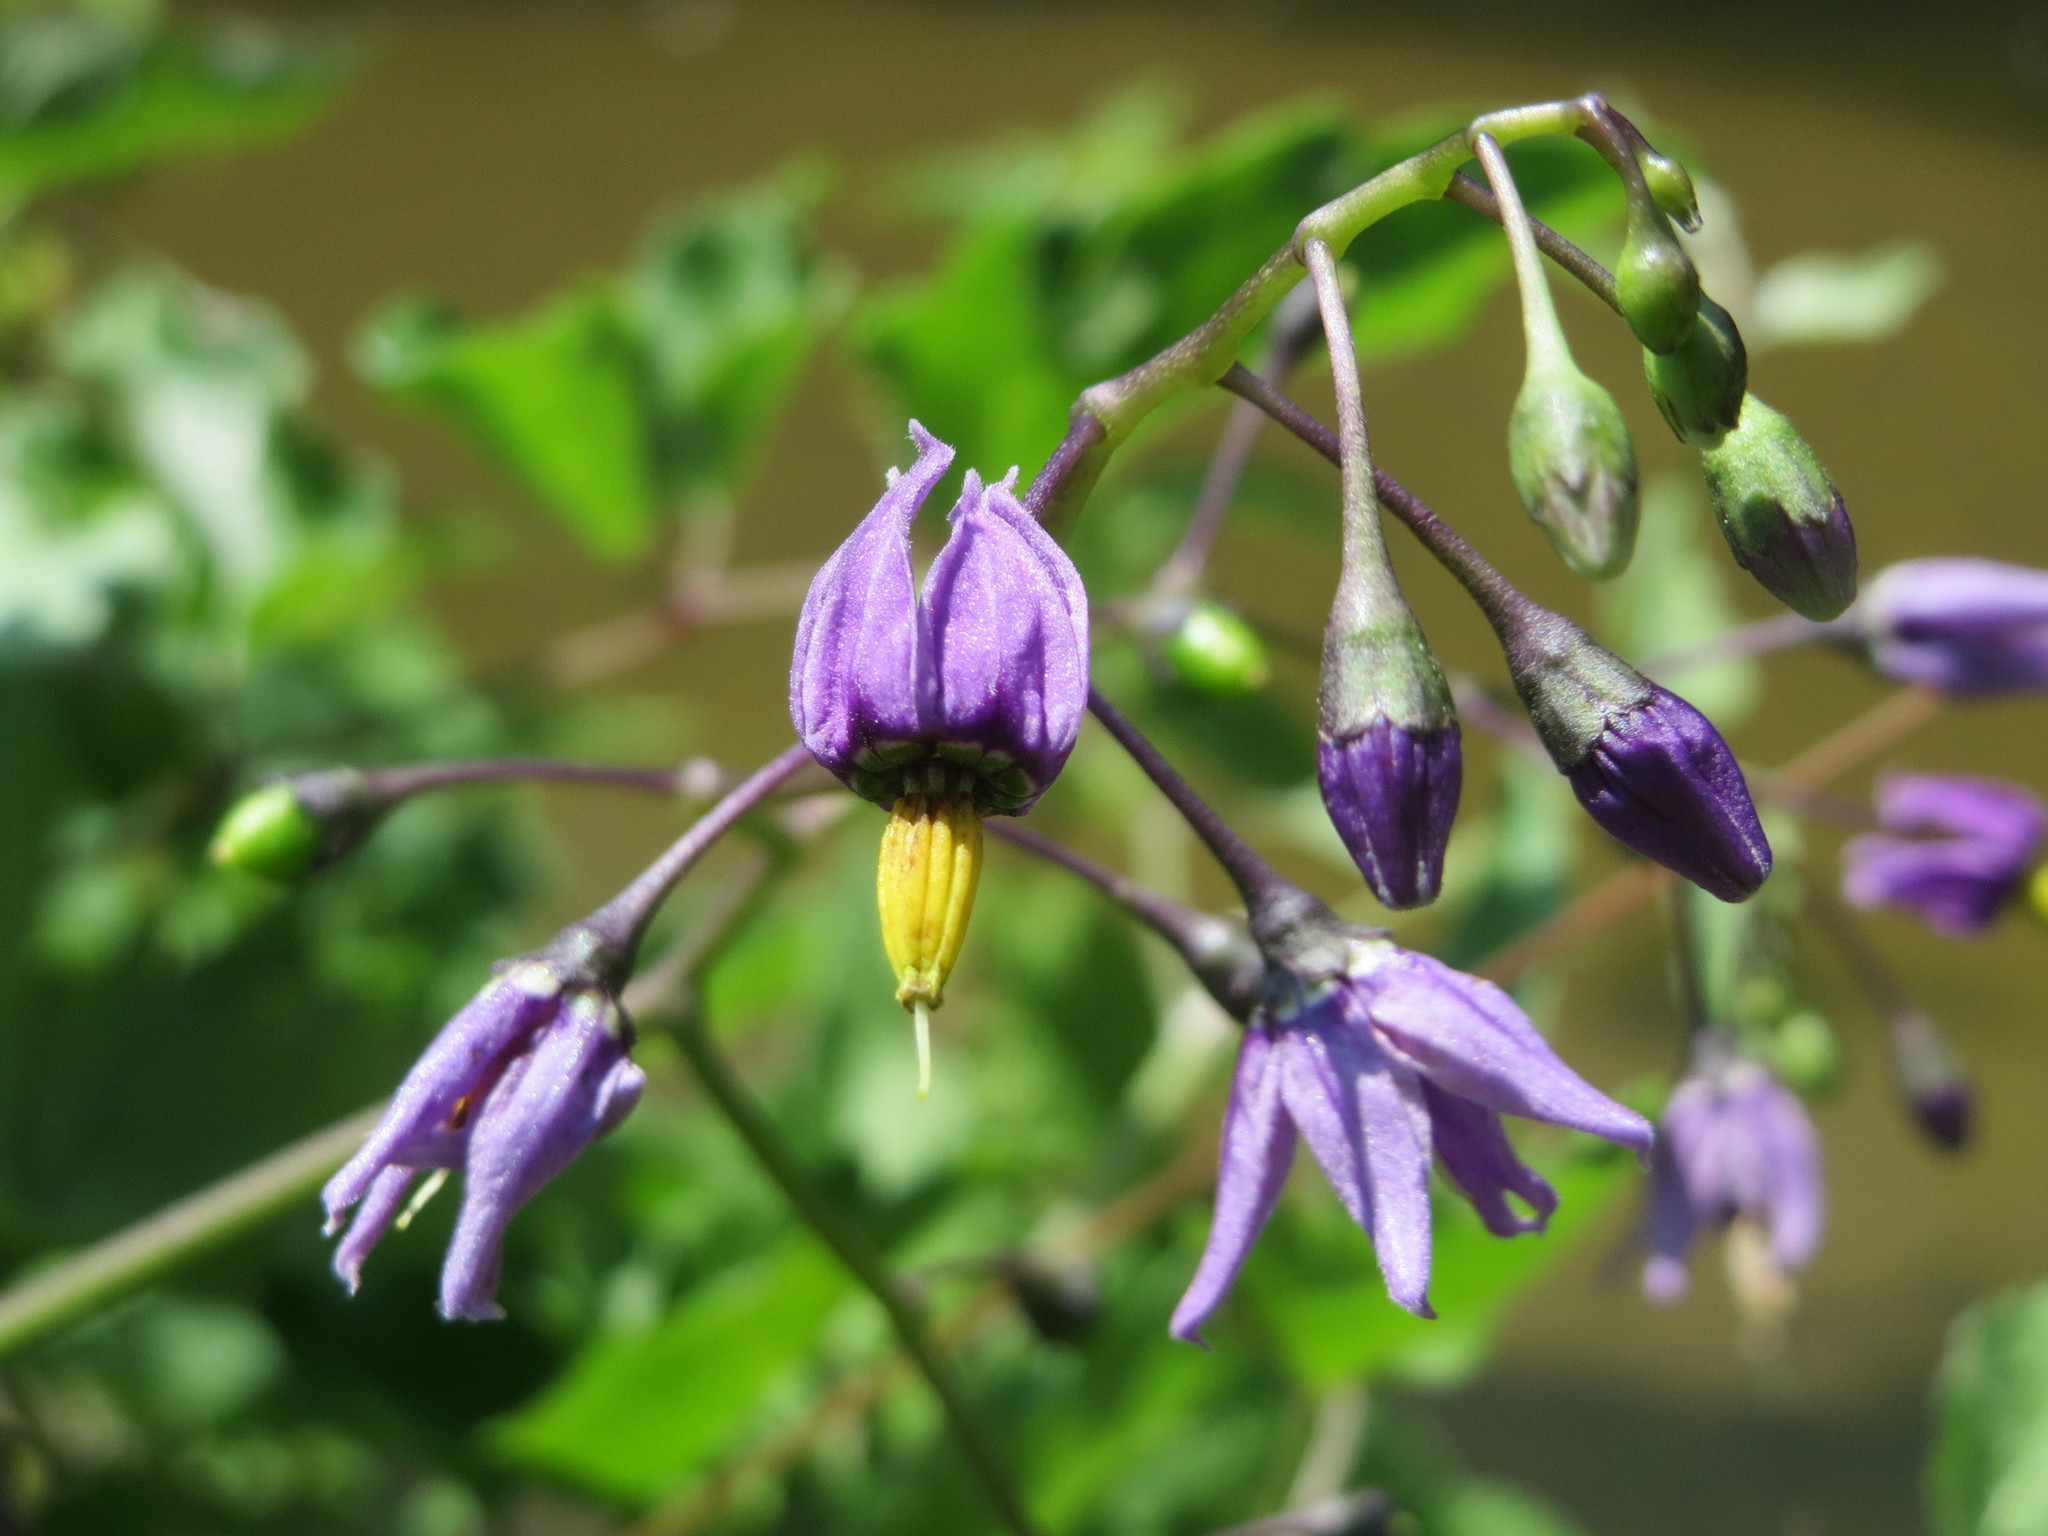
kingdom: Plantae
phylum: Tracheophyta
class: Magnoliopsida
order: Solanales
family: Solanaceae
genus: Solanum
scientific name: Solanum dulcamara
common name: Climbing nightshade
